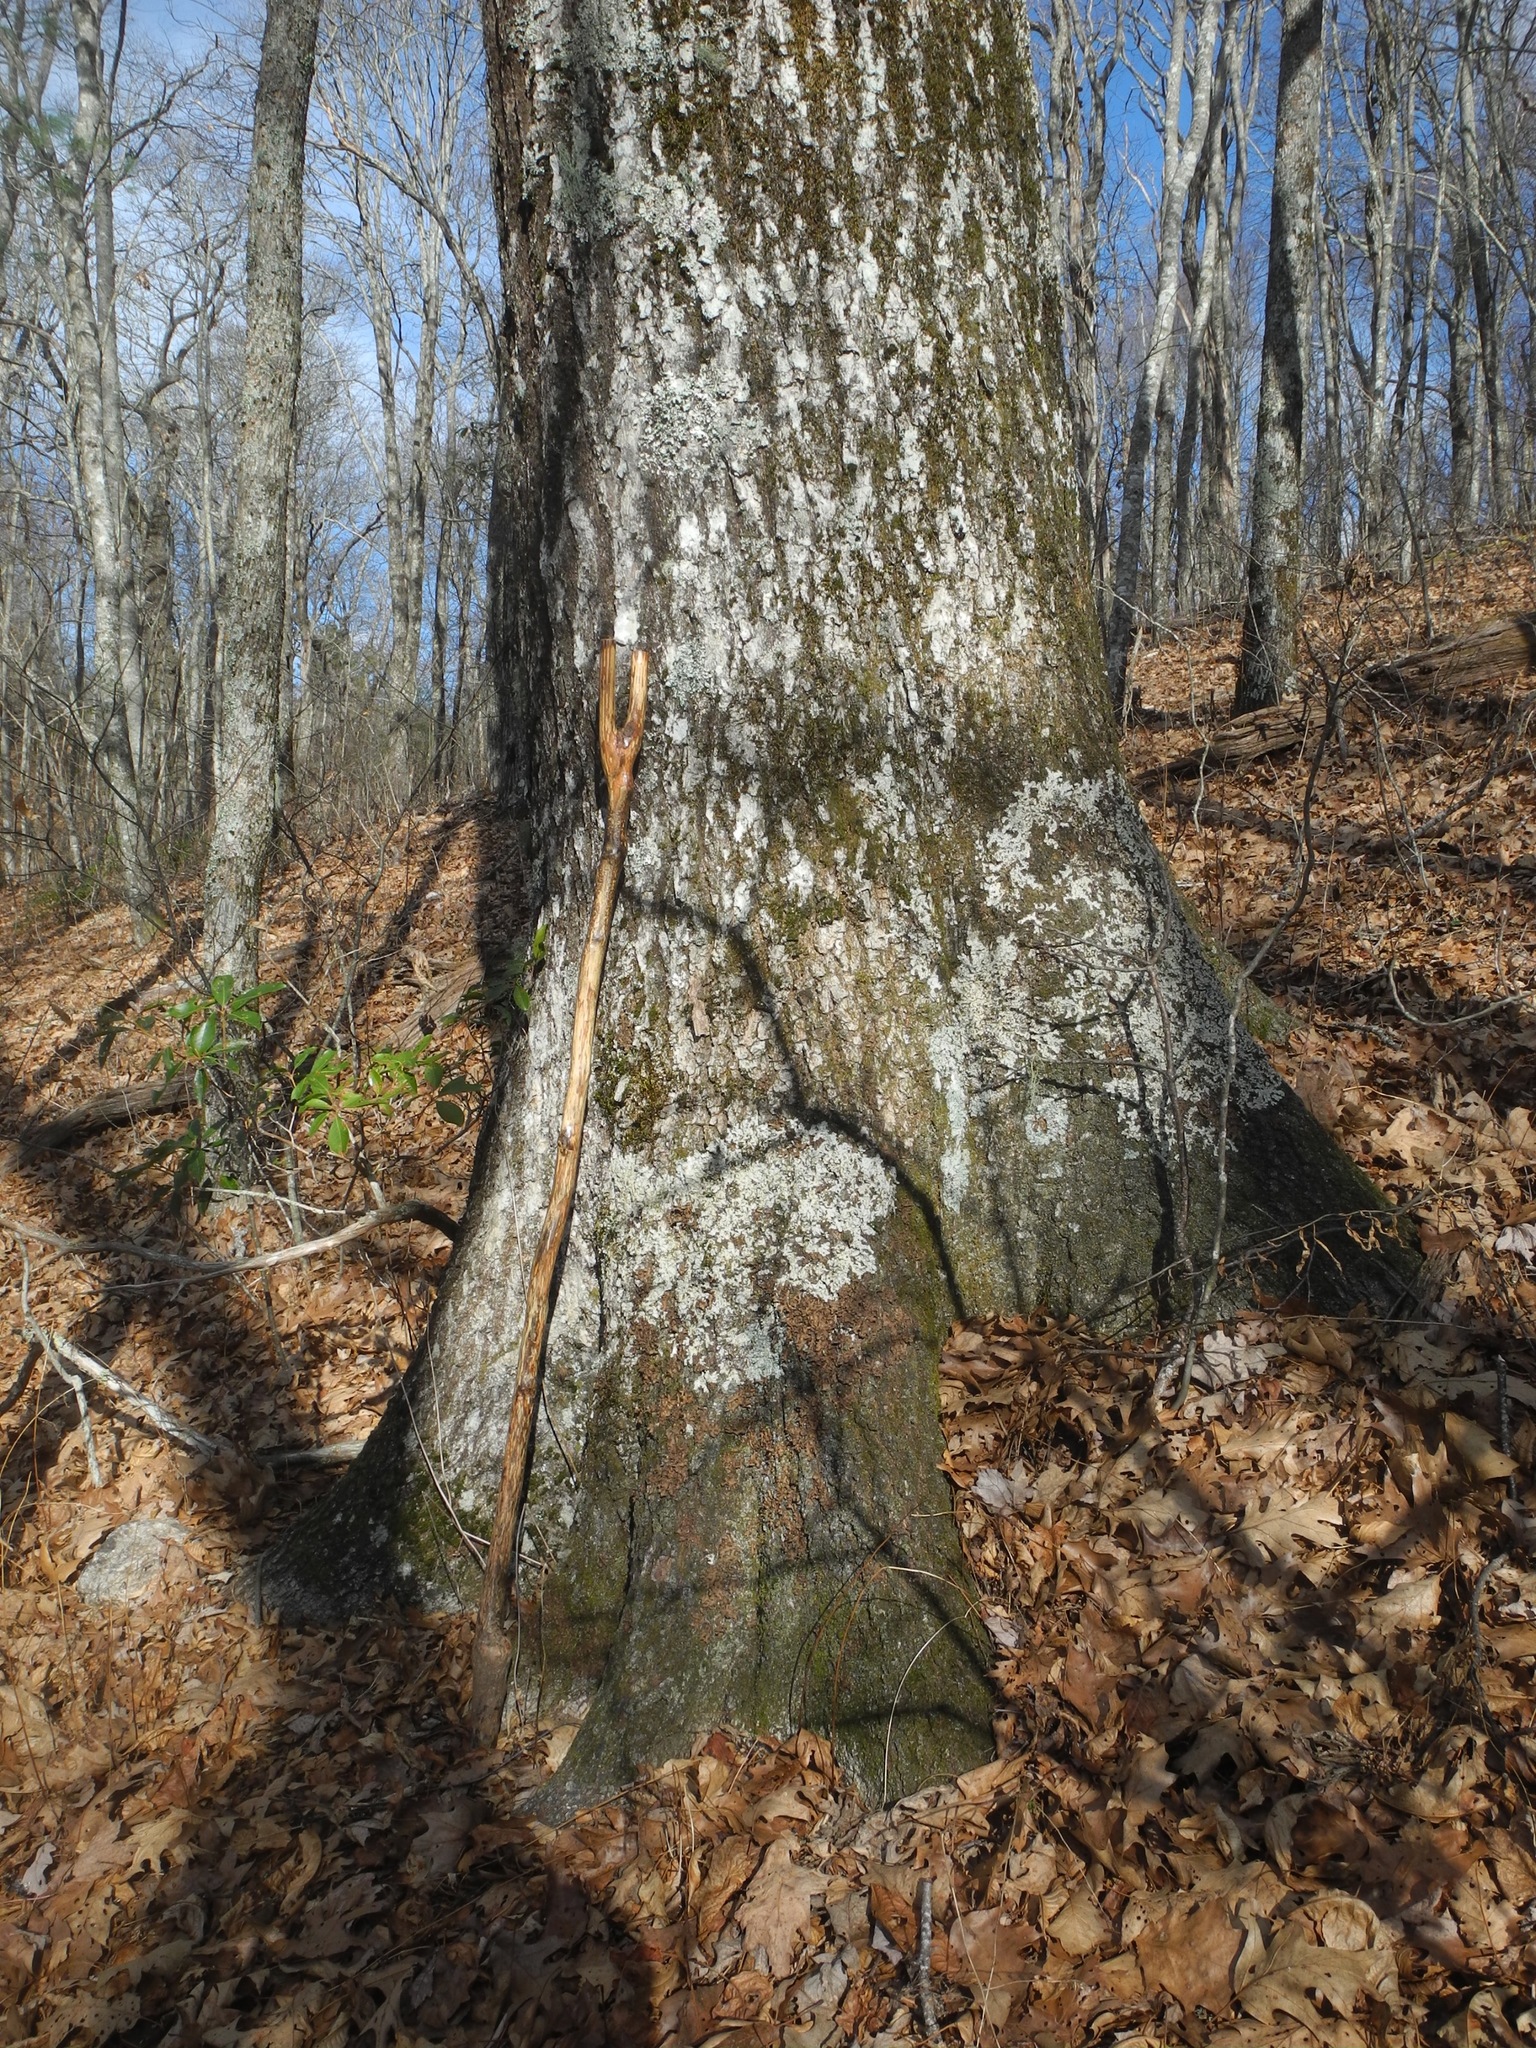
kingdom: Plantae
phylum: Tracheophyta
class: Magnoliopsida
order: Fagales
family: Fagaceae
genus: Quercus
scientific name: Quercus rubra
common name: Red oak
